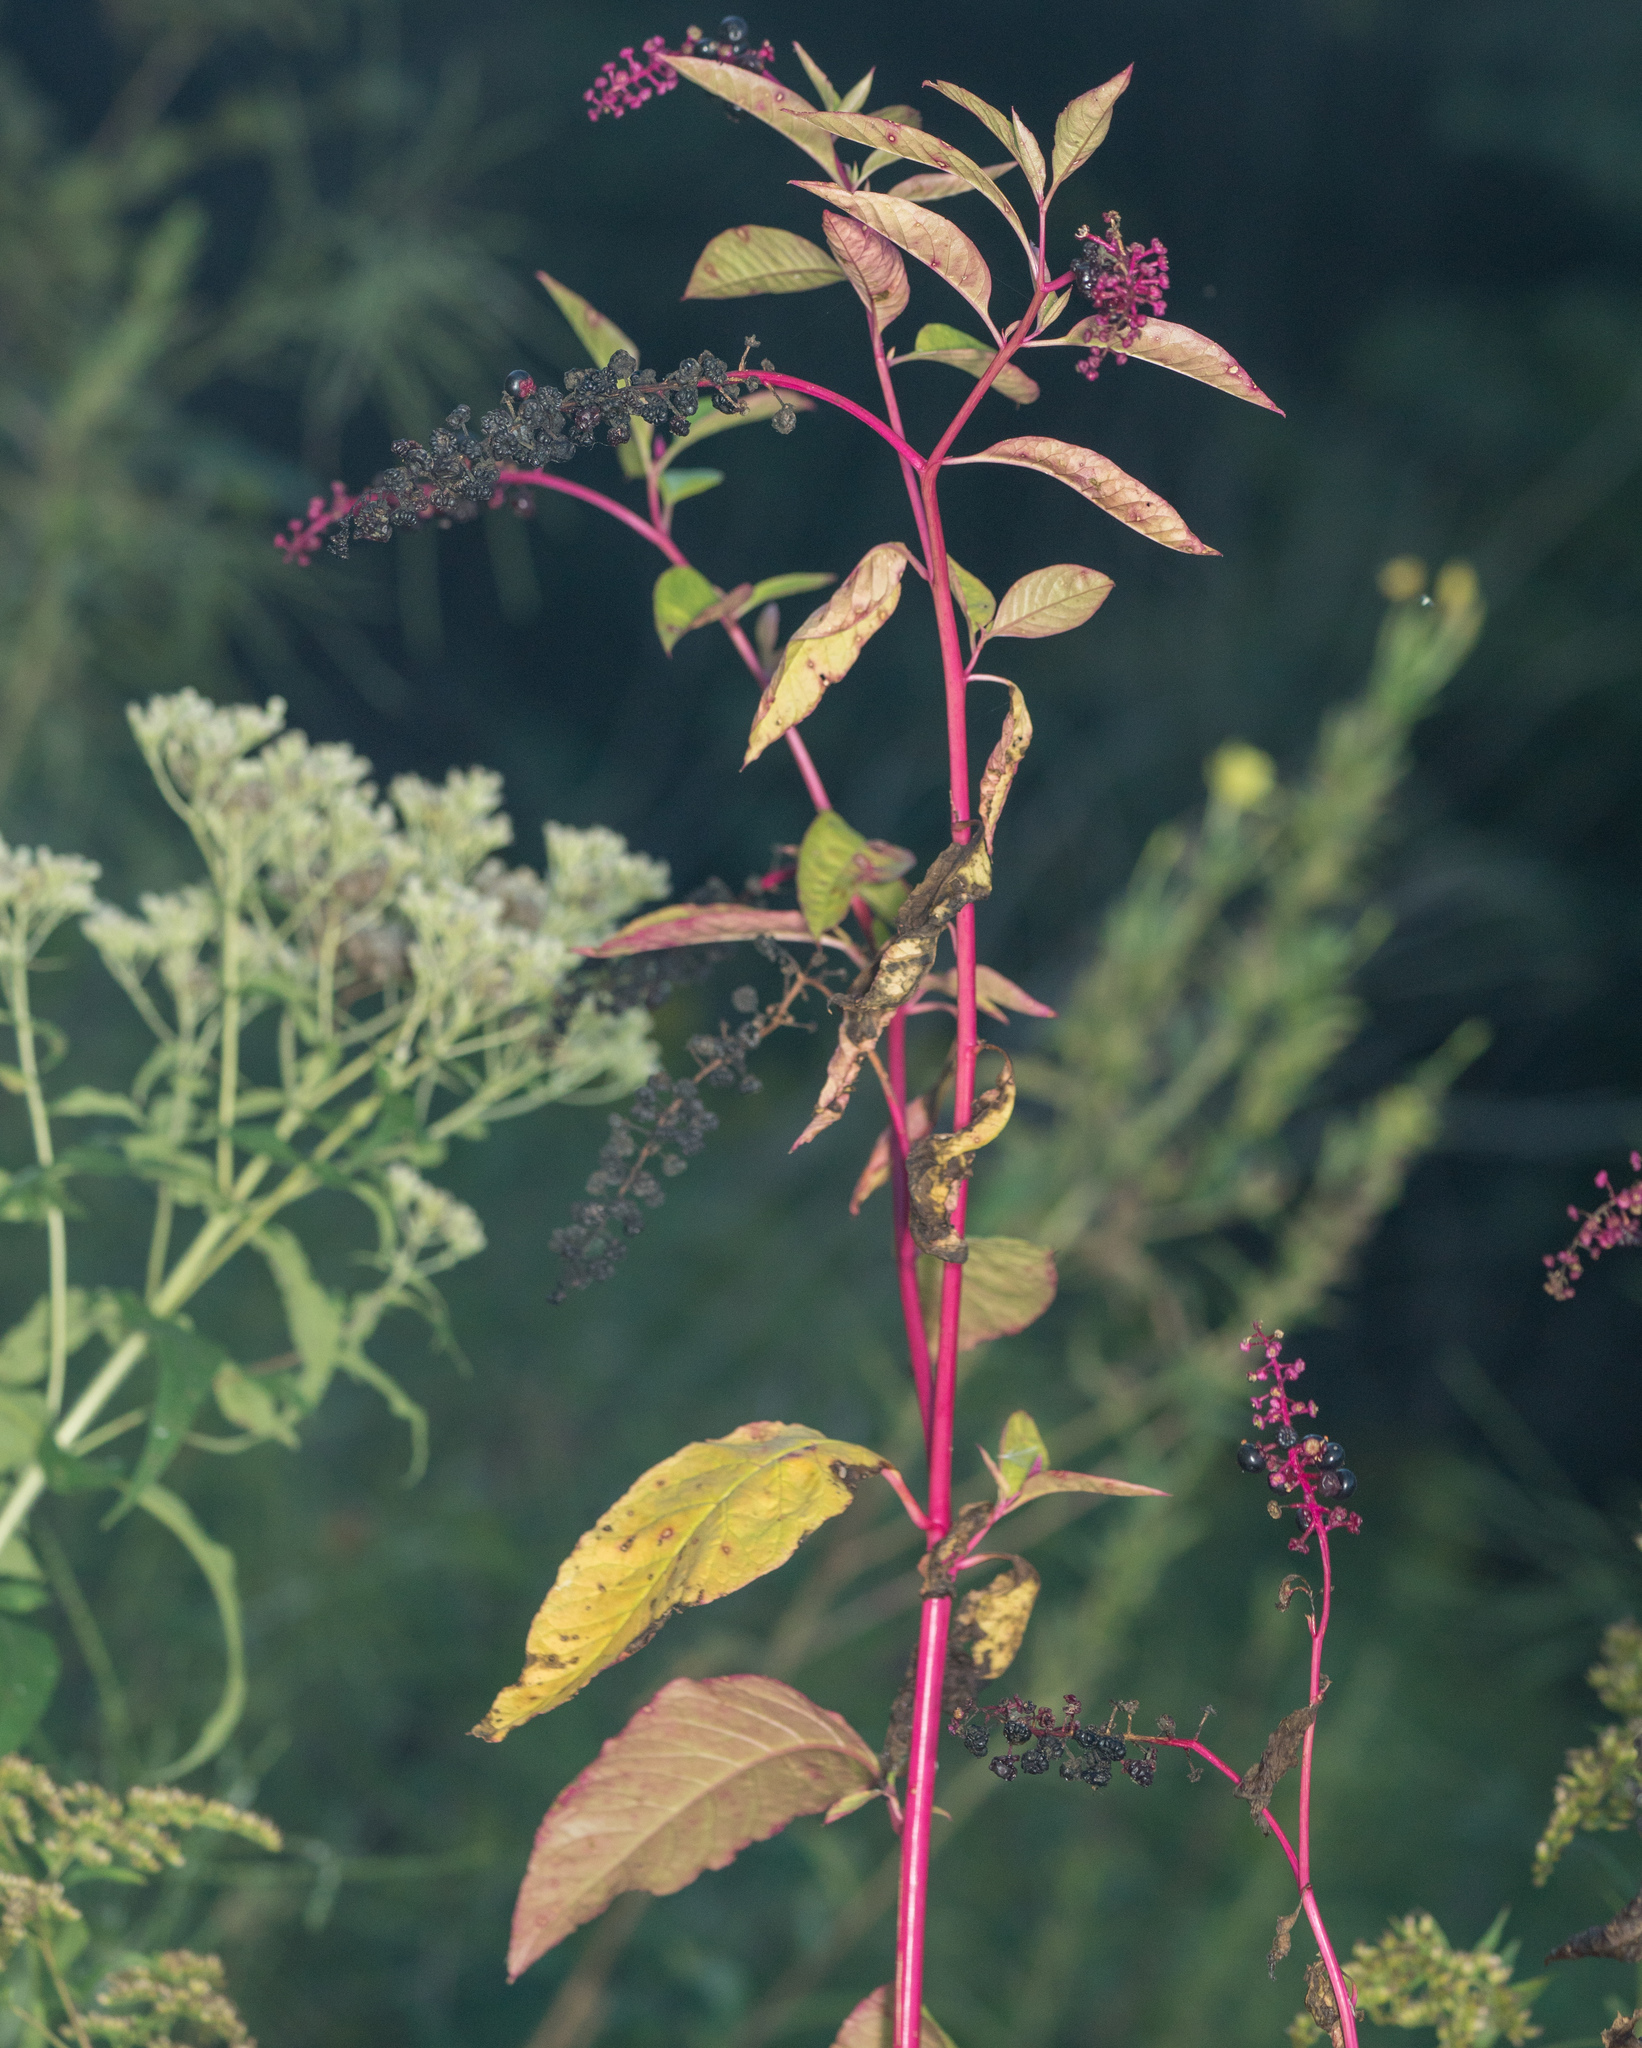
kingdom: Plantae
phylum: Tracheophyta
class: Magnoliopsida
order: Caryophyllales
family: Phytolaccaceae
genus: Phytolacca
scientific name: Phytolacca americana
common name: American pokeweed
